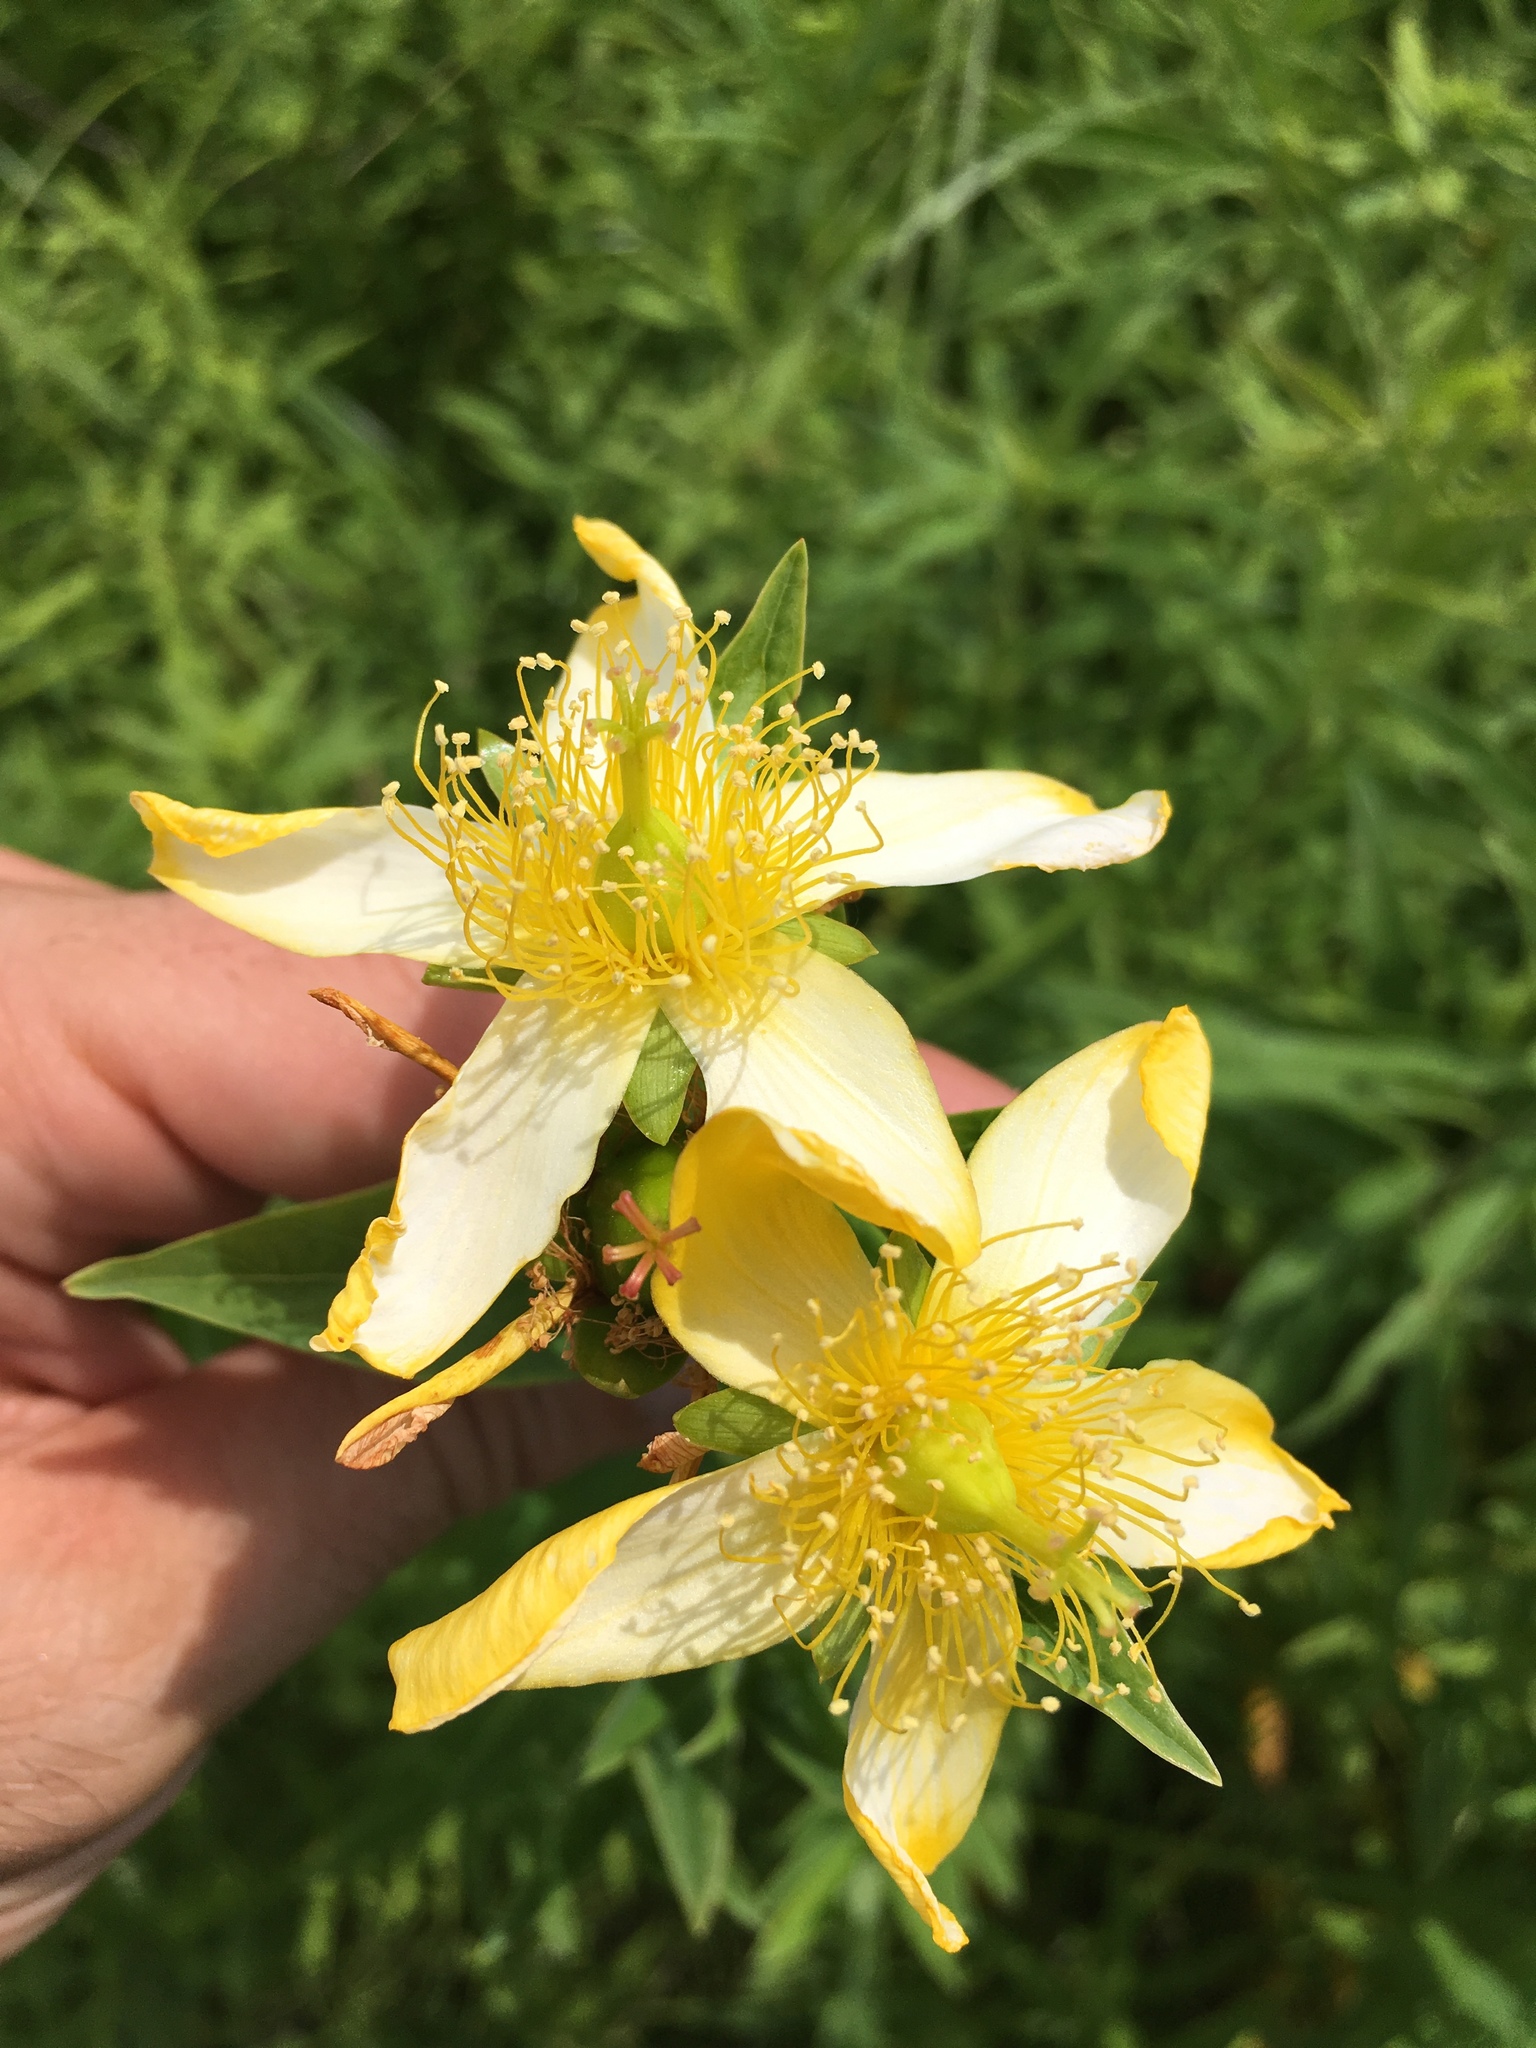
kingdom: Plantae
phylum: Tracheophyta
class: Magnoliopsida
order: Malpighiales
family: Hypericaceae
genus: Hypericum
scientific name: Hypericum ascyron
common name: Giant st. john's-wort
